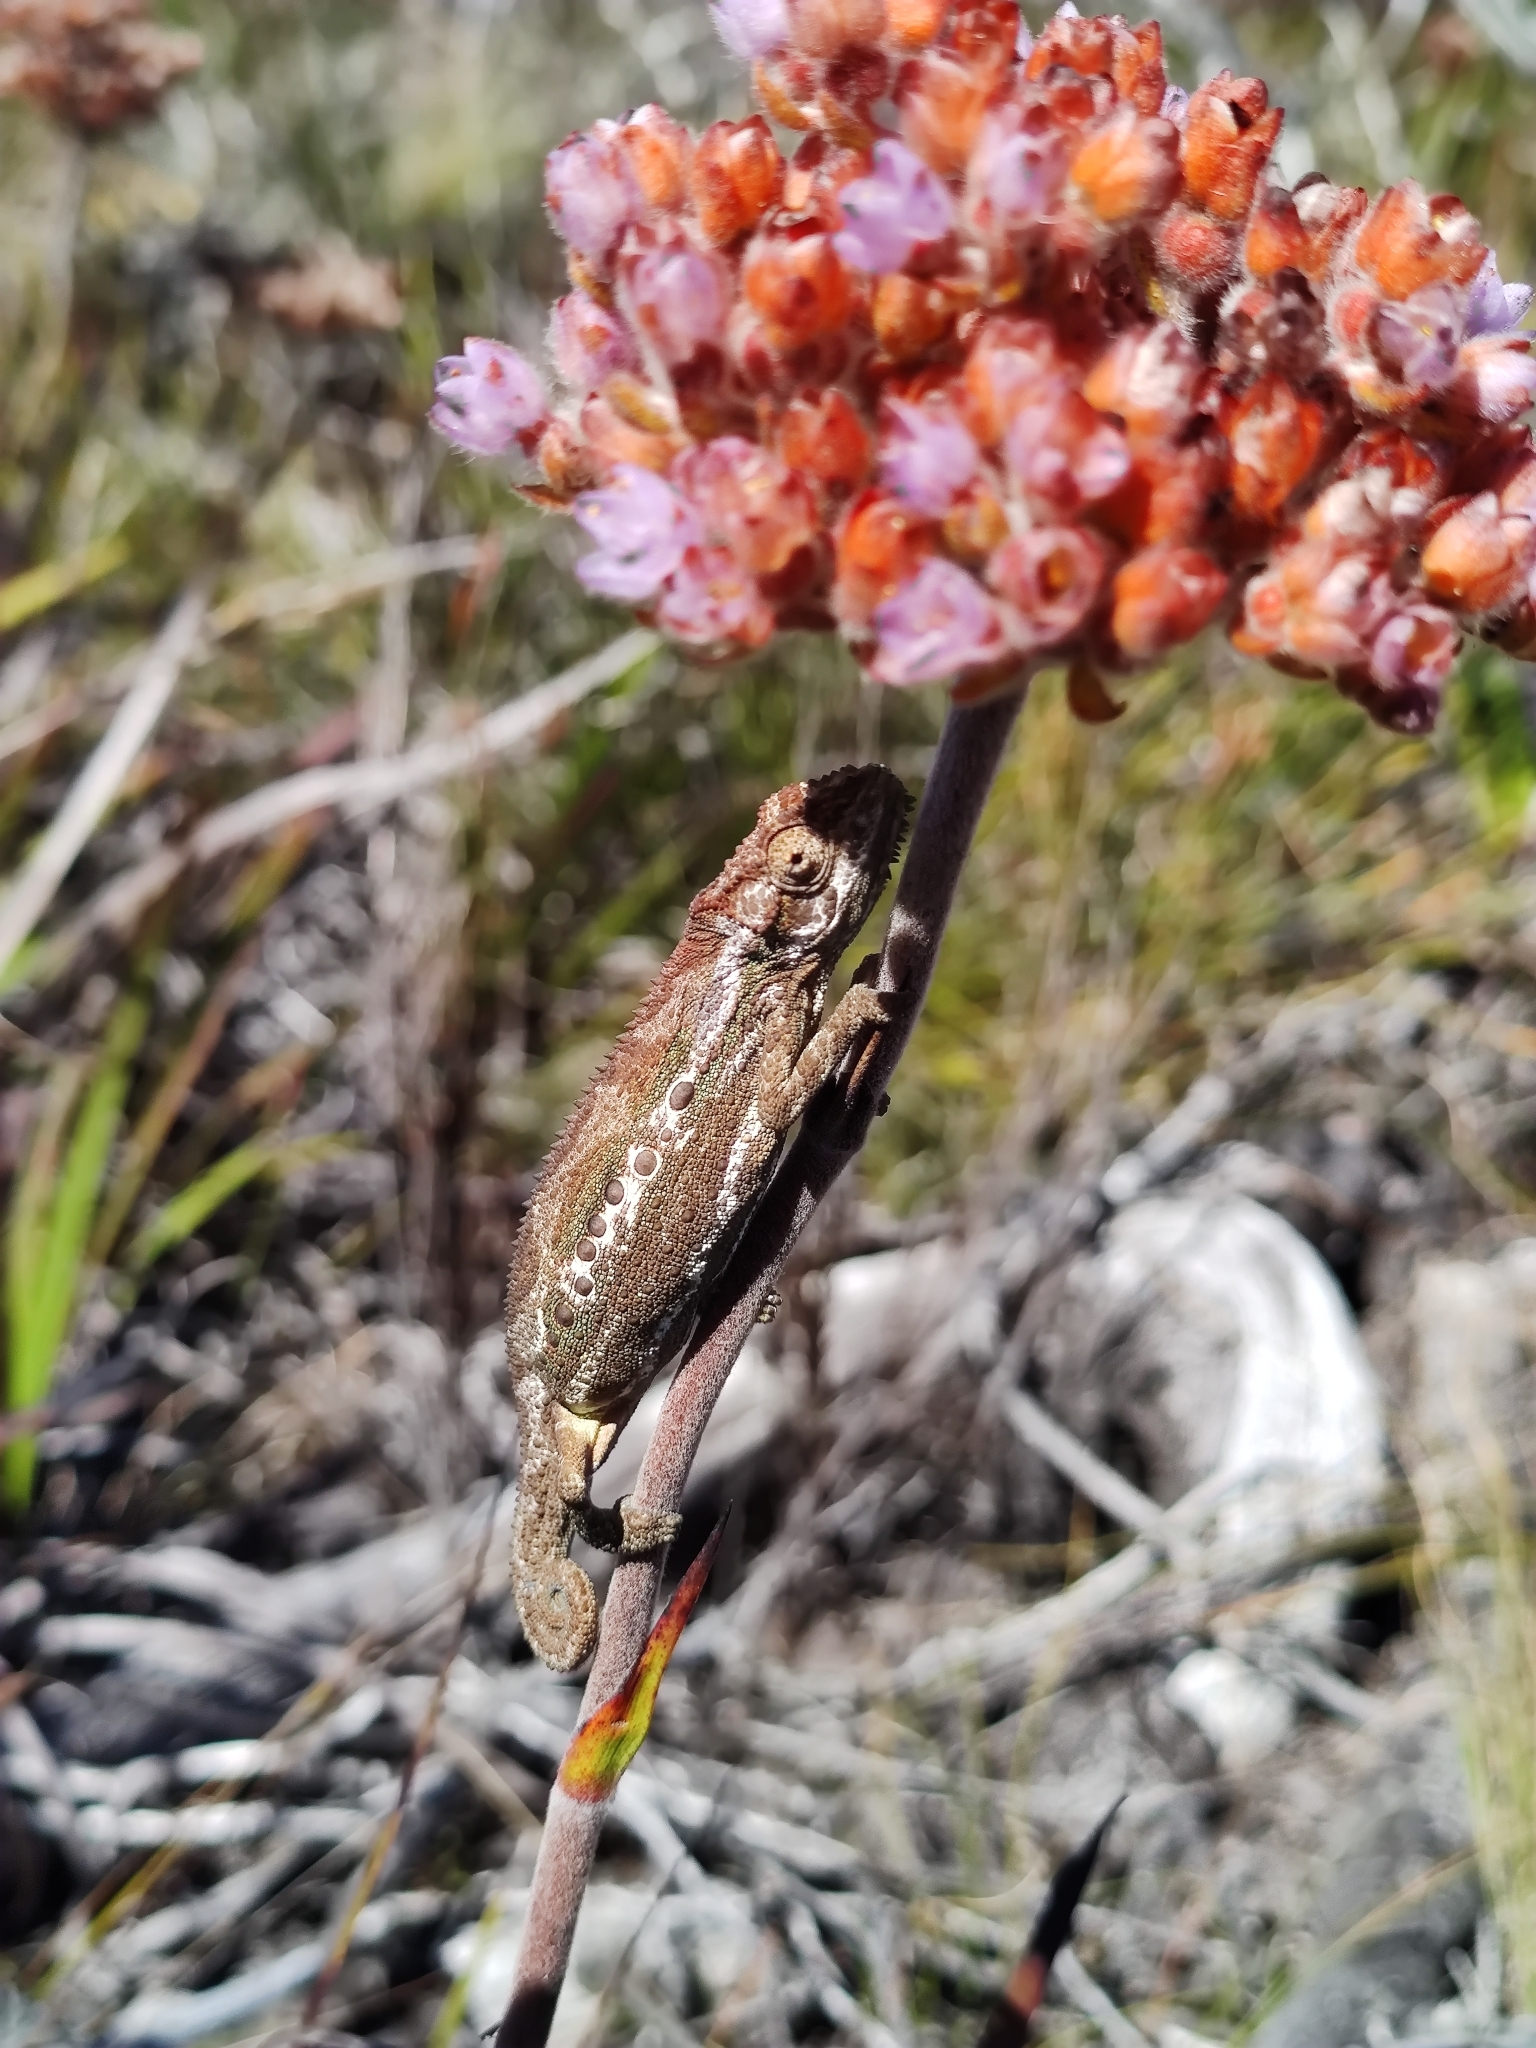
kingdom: Animalia
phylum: Chordata
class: Squamata
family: Chamaeleonidae
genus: Bradypodion
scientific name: Bradypodion gutturale
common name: Little karoo dwarf chameleon
